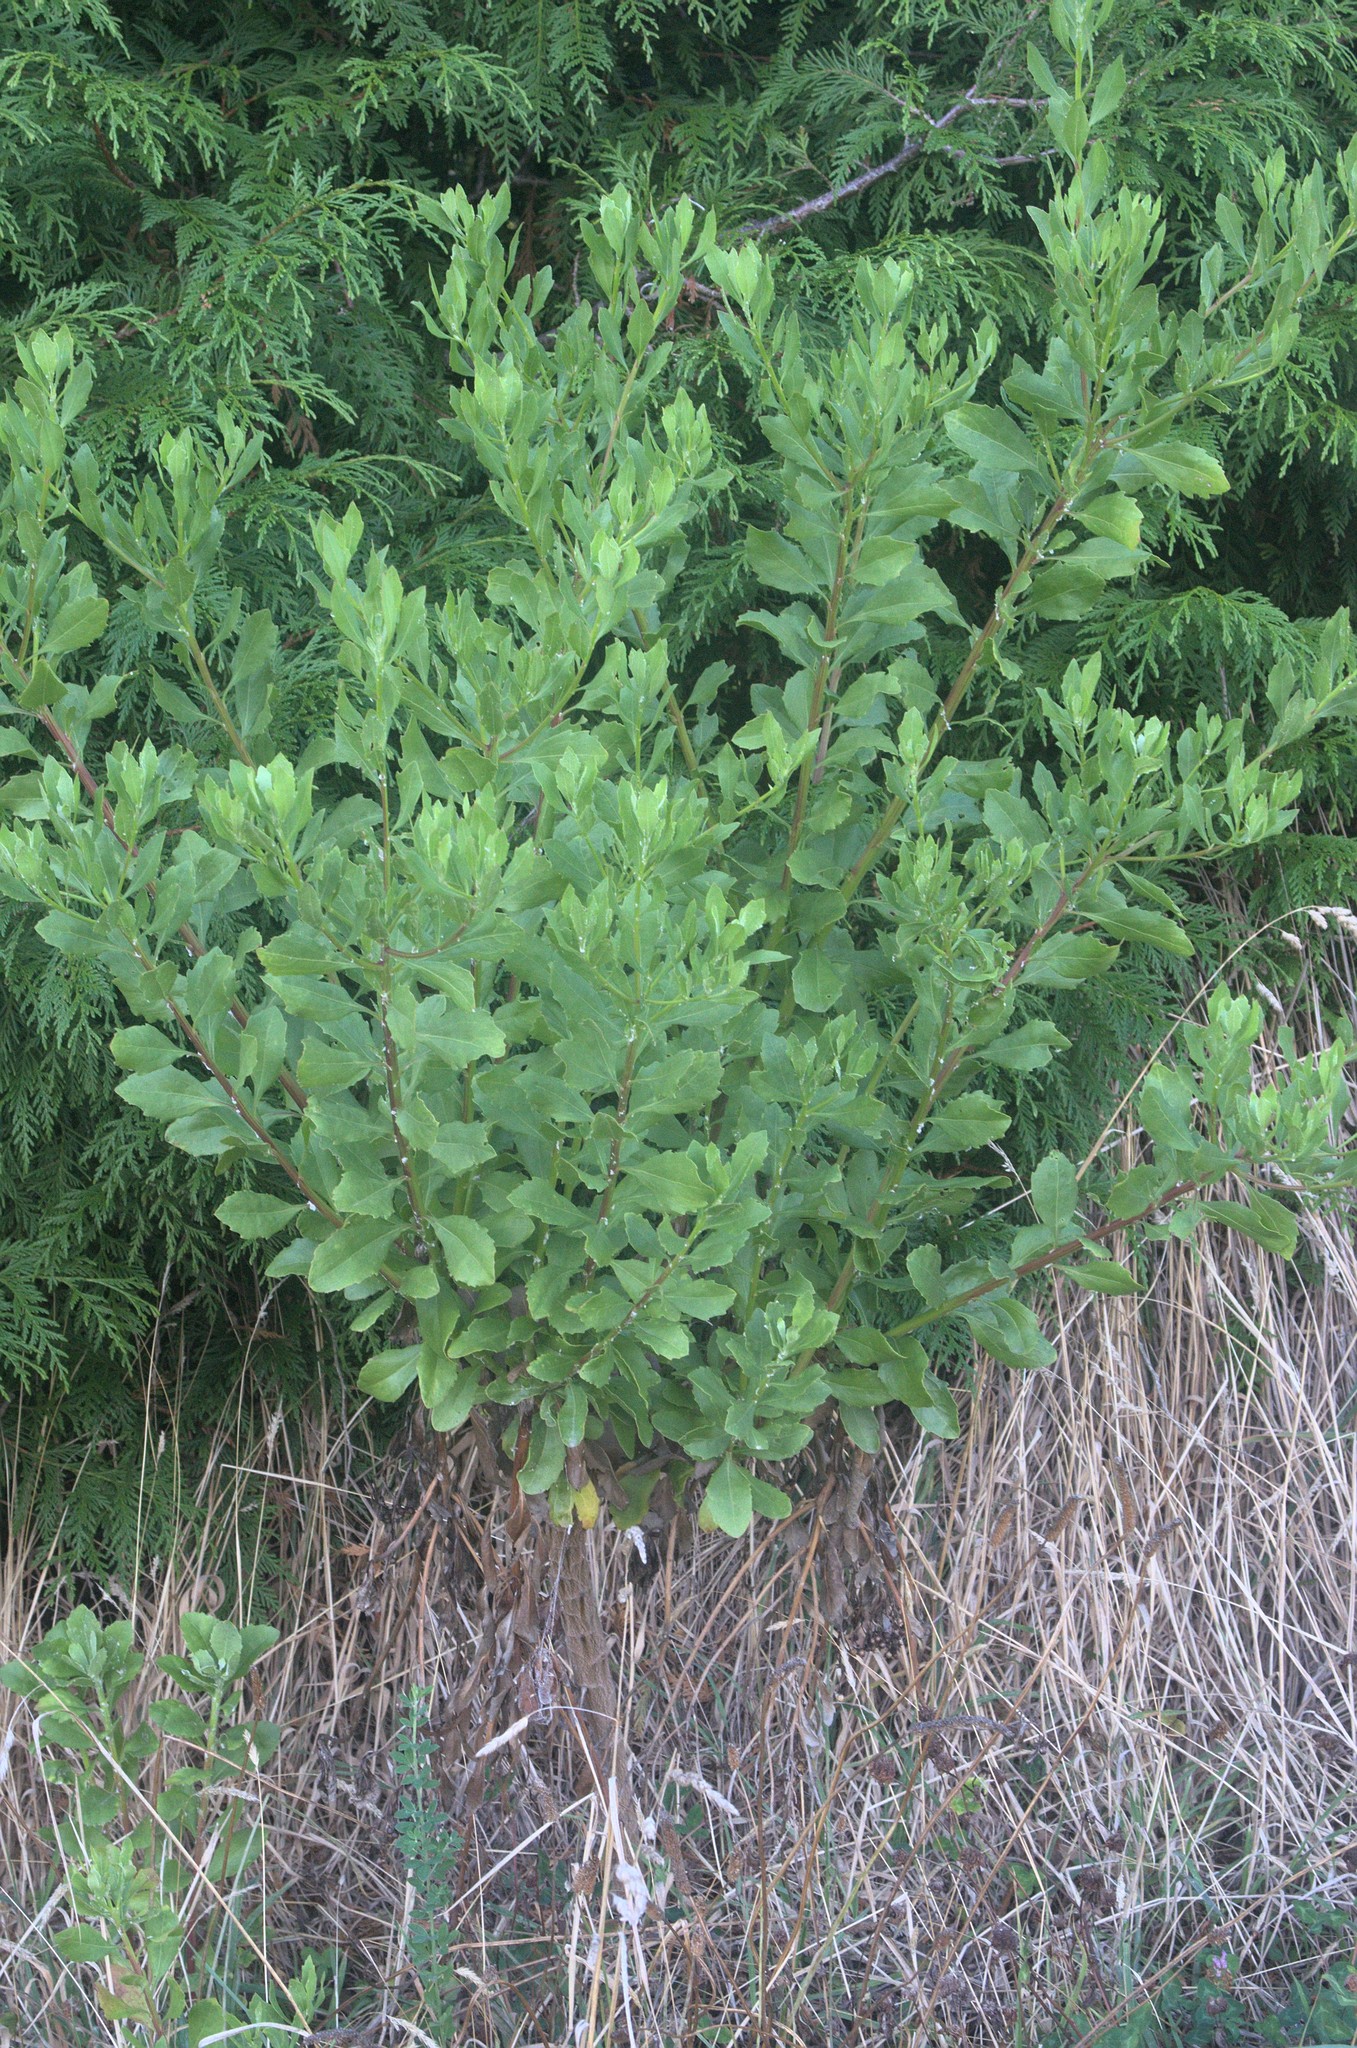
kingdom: Plantae
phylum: Tracheophyta
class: Magnoliopsida
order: Asterales
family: Asteraceae
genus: Osteospermum
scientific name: Osteospermum moniliferum
